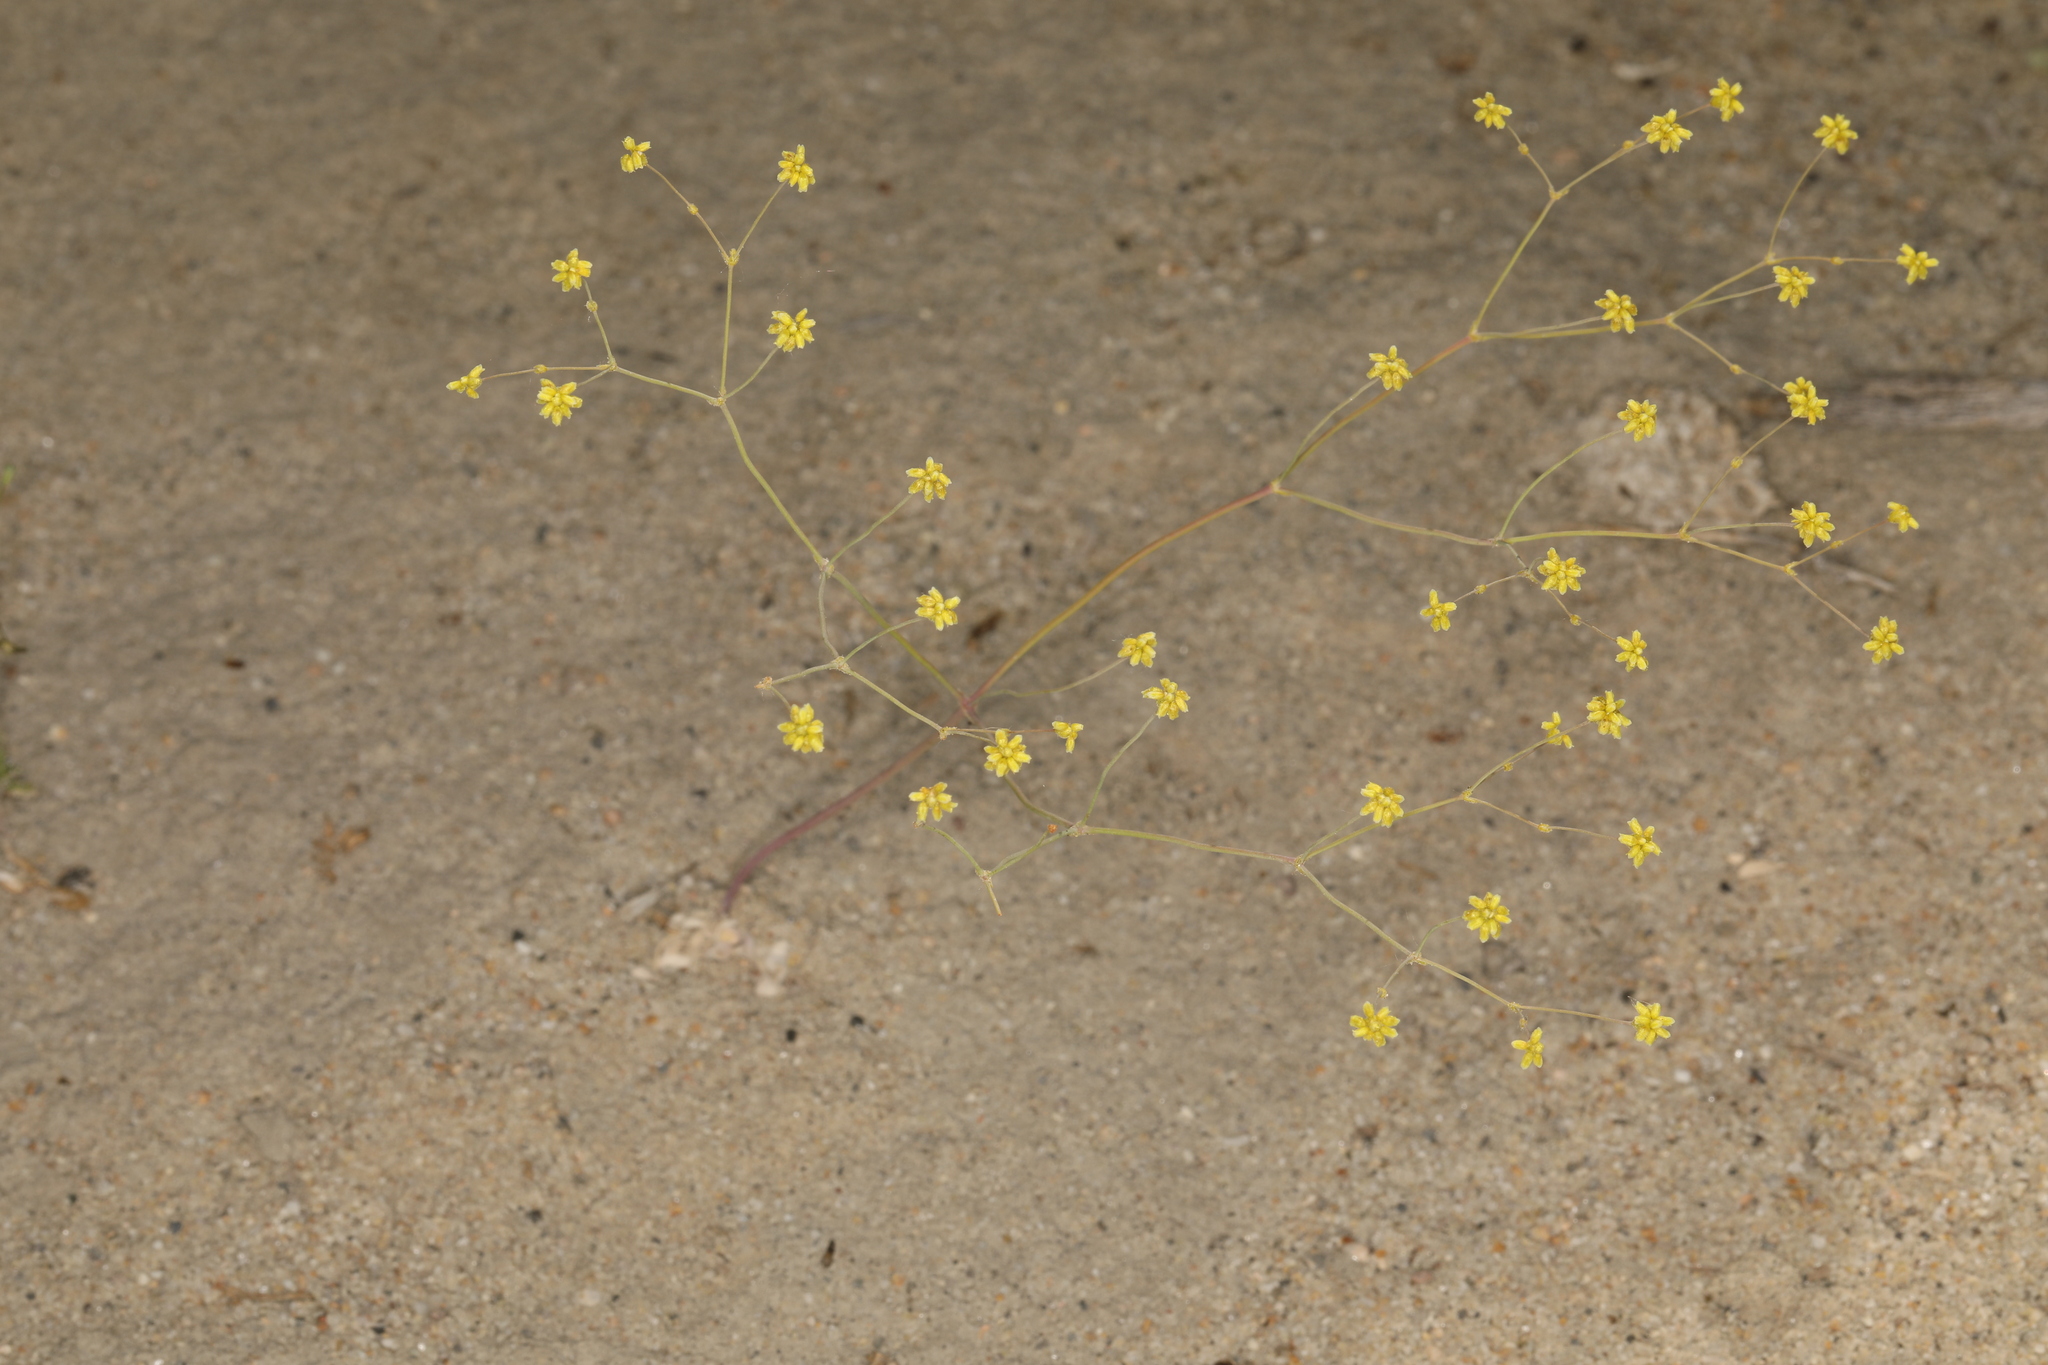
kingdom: Plantae
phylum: Tracheophyta
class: Magnoliopsida
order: Caryophyllales
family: Polygonaceae
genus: Eriogonum
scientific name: Eriogonum pusillum
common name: Yellow turbans
